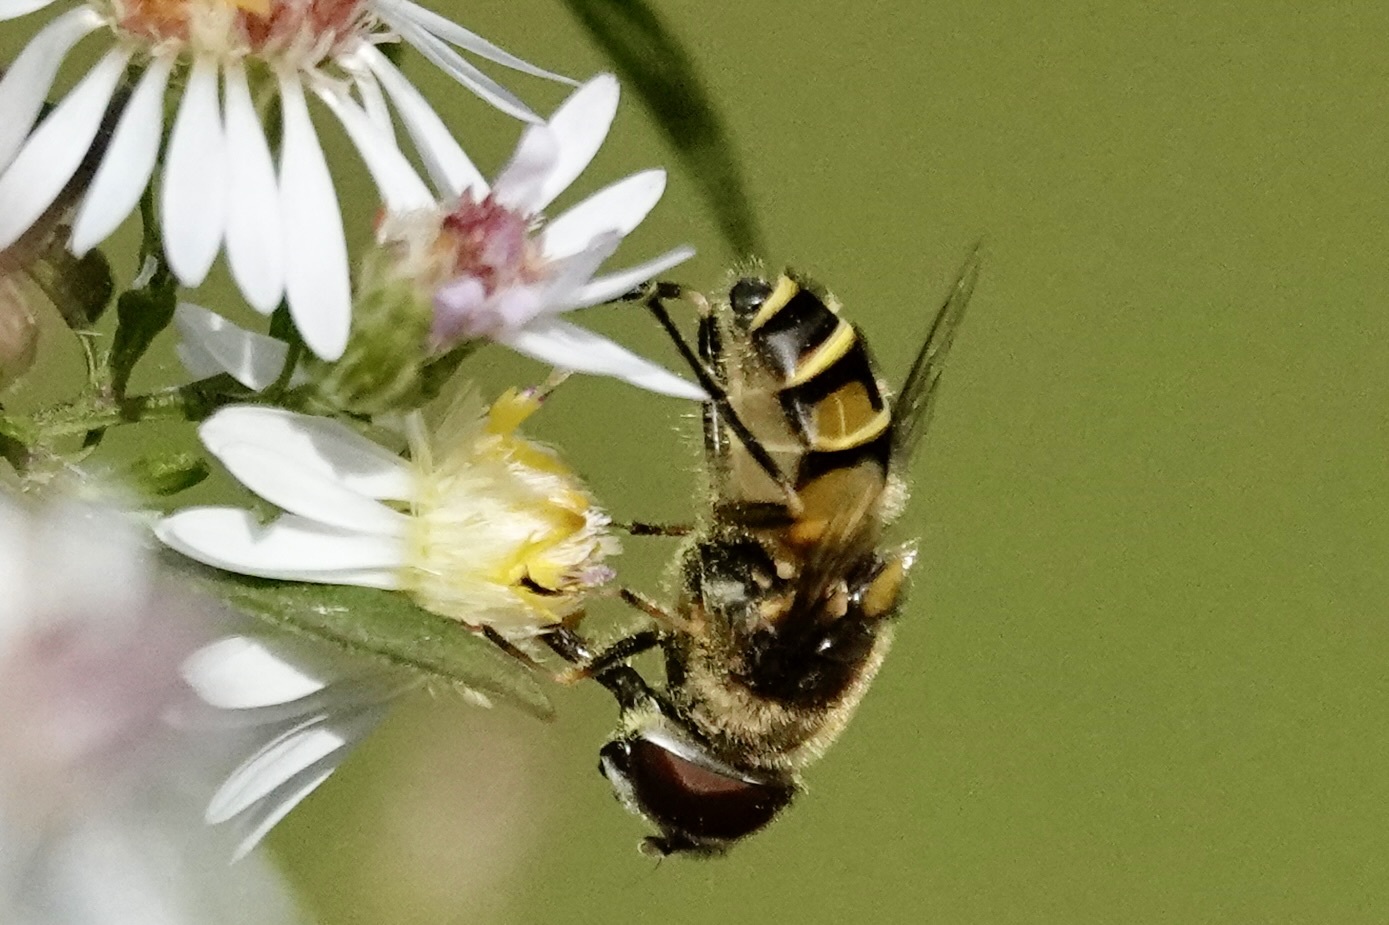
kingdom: Animalia
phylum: Arthropoda
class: Insecta
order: Diptera
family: Syrphidae
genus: Eristalis
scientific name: Eristalis transversa
